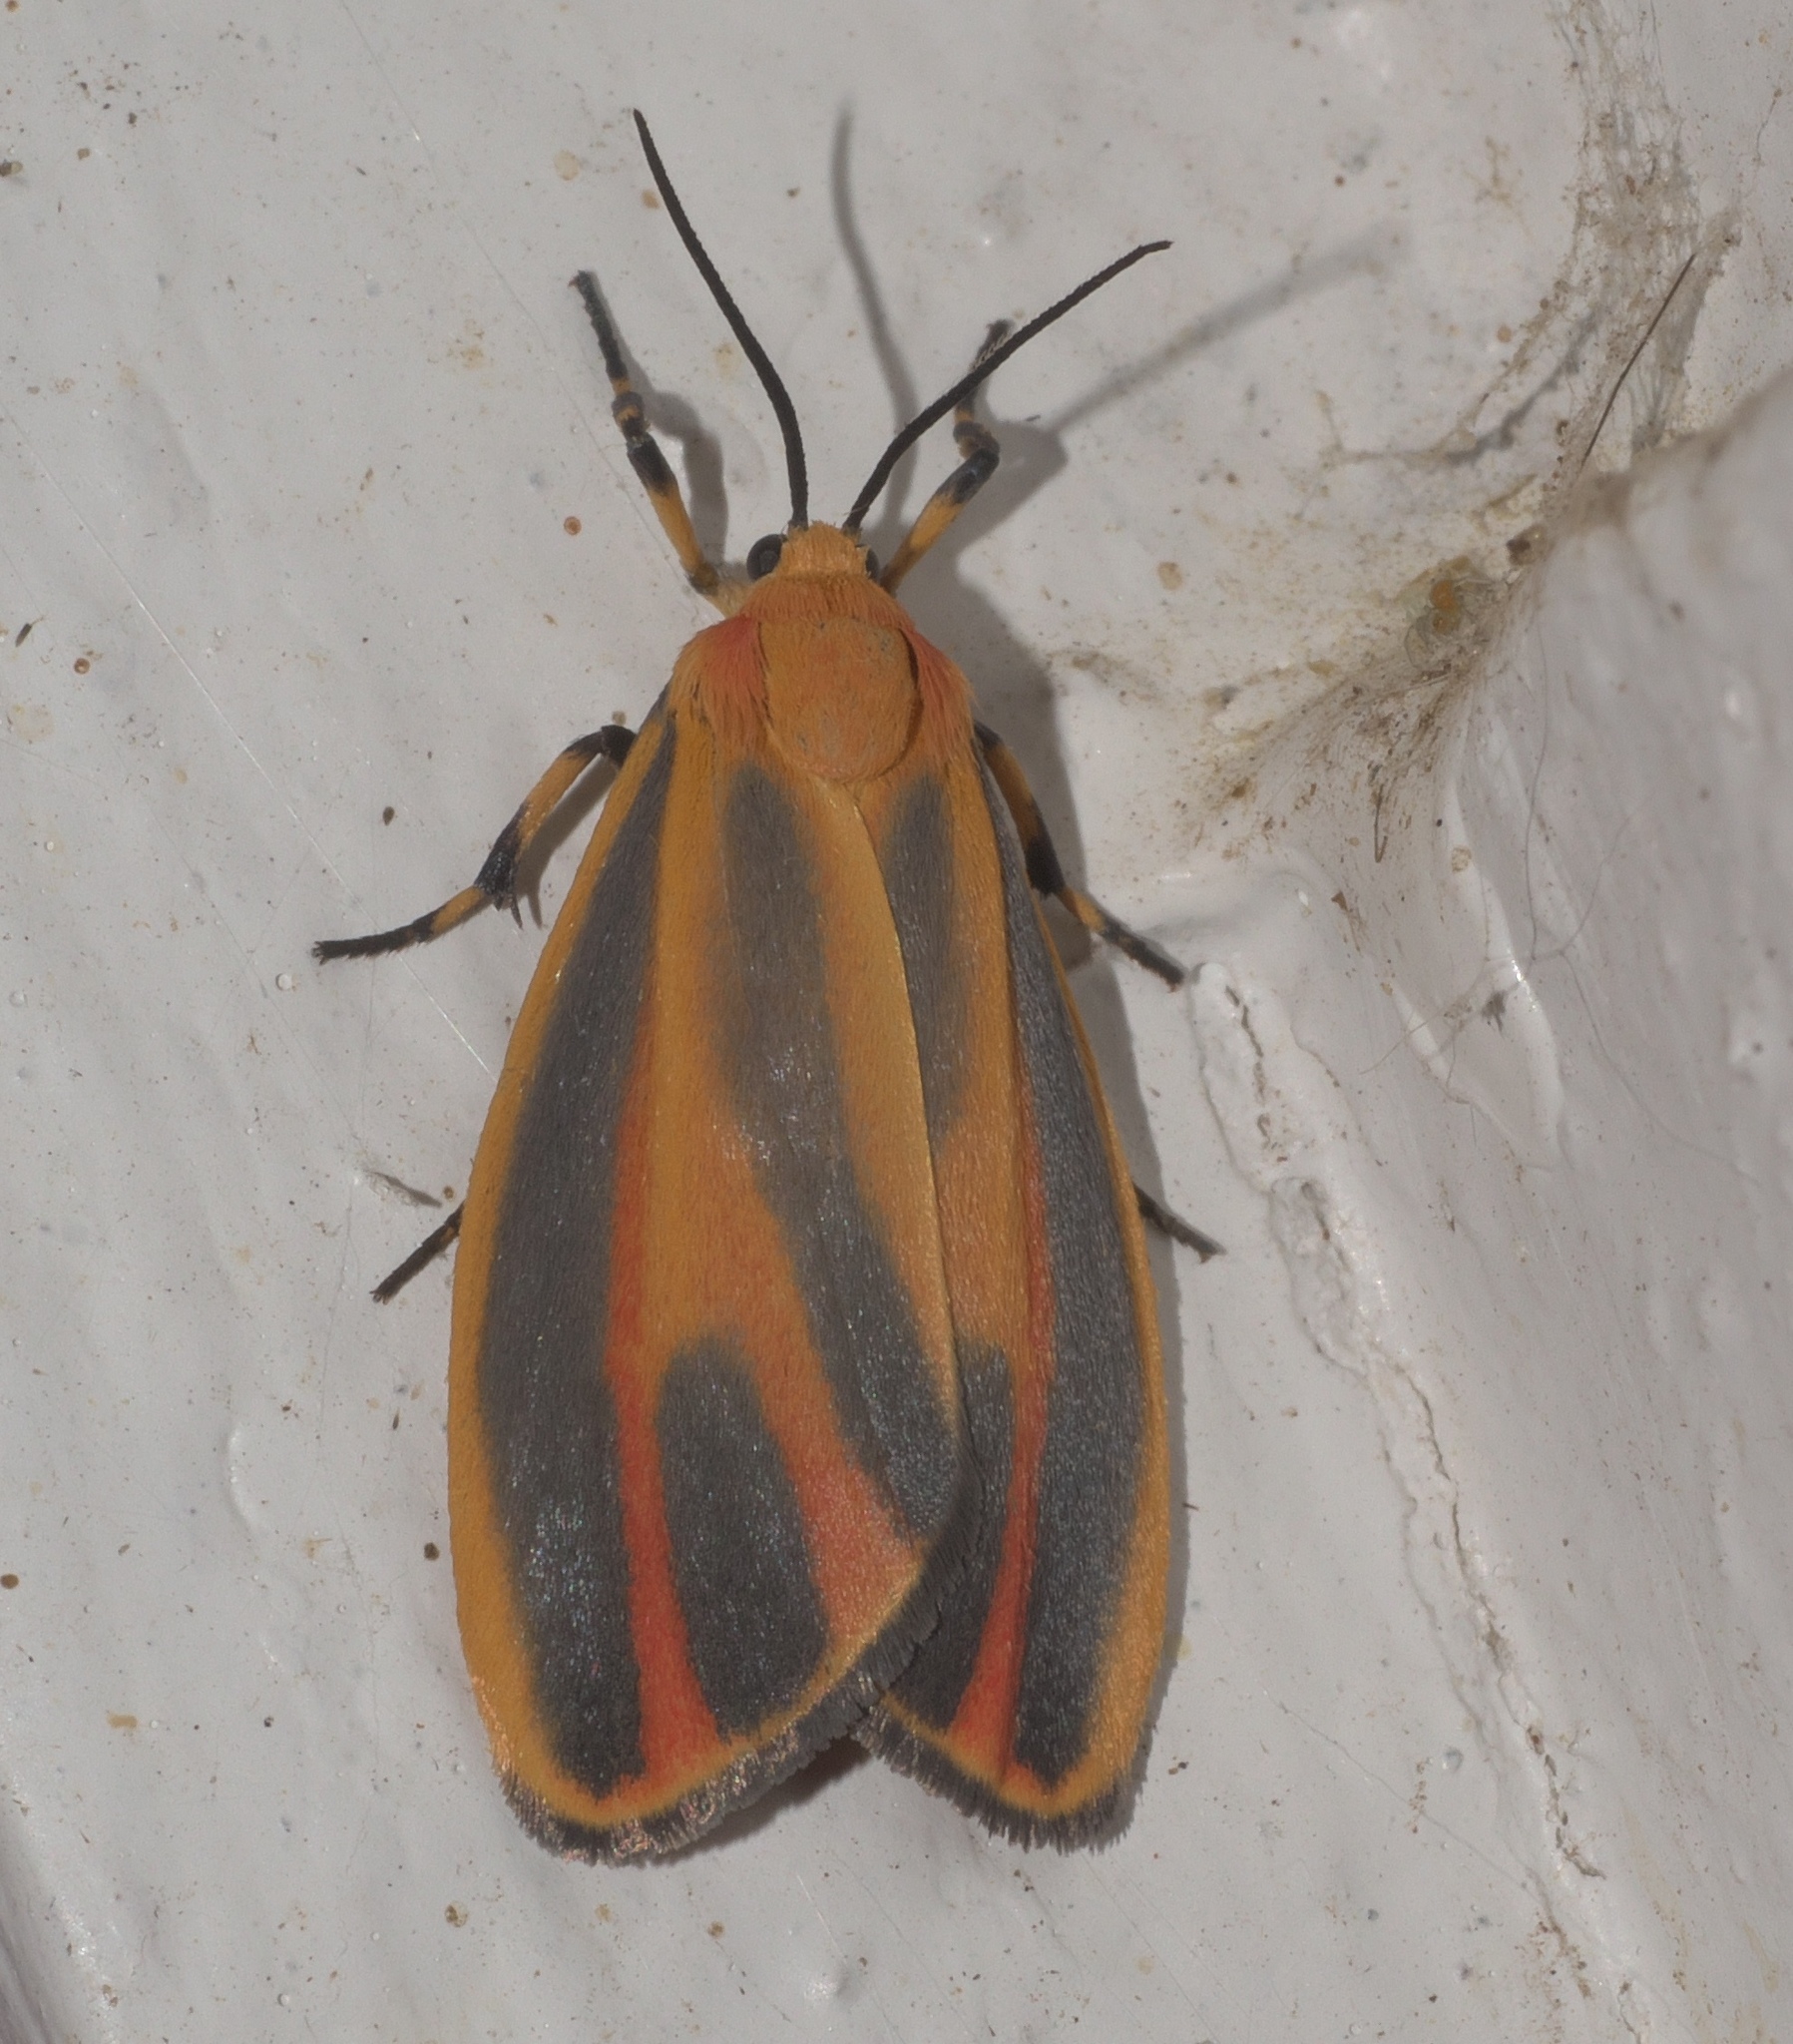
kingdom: Animalia
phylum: Arthropoda
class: Insecta
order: Lepidoptera
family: Erebidae
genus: Hypoprepia
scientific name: Hypoprepia fucosa
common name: Painted lichen moth
